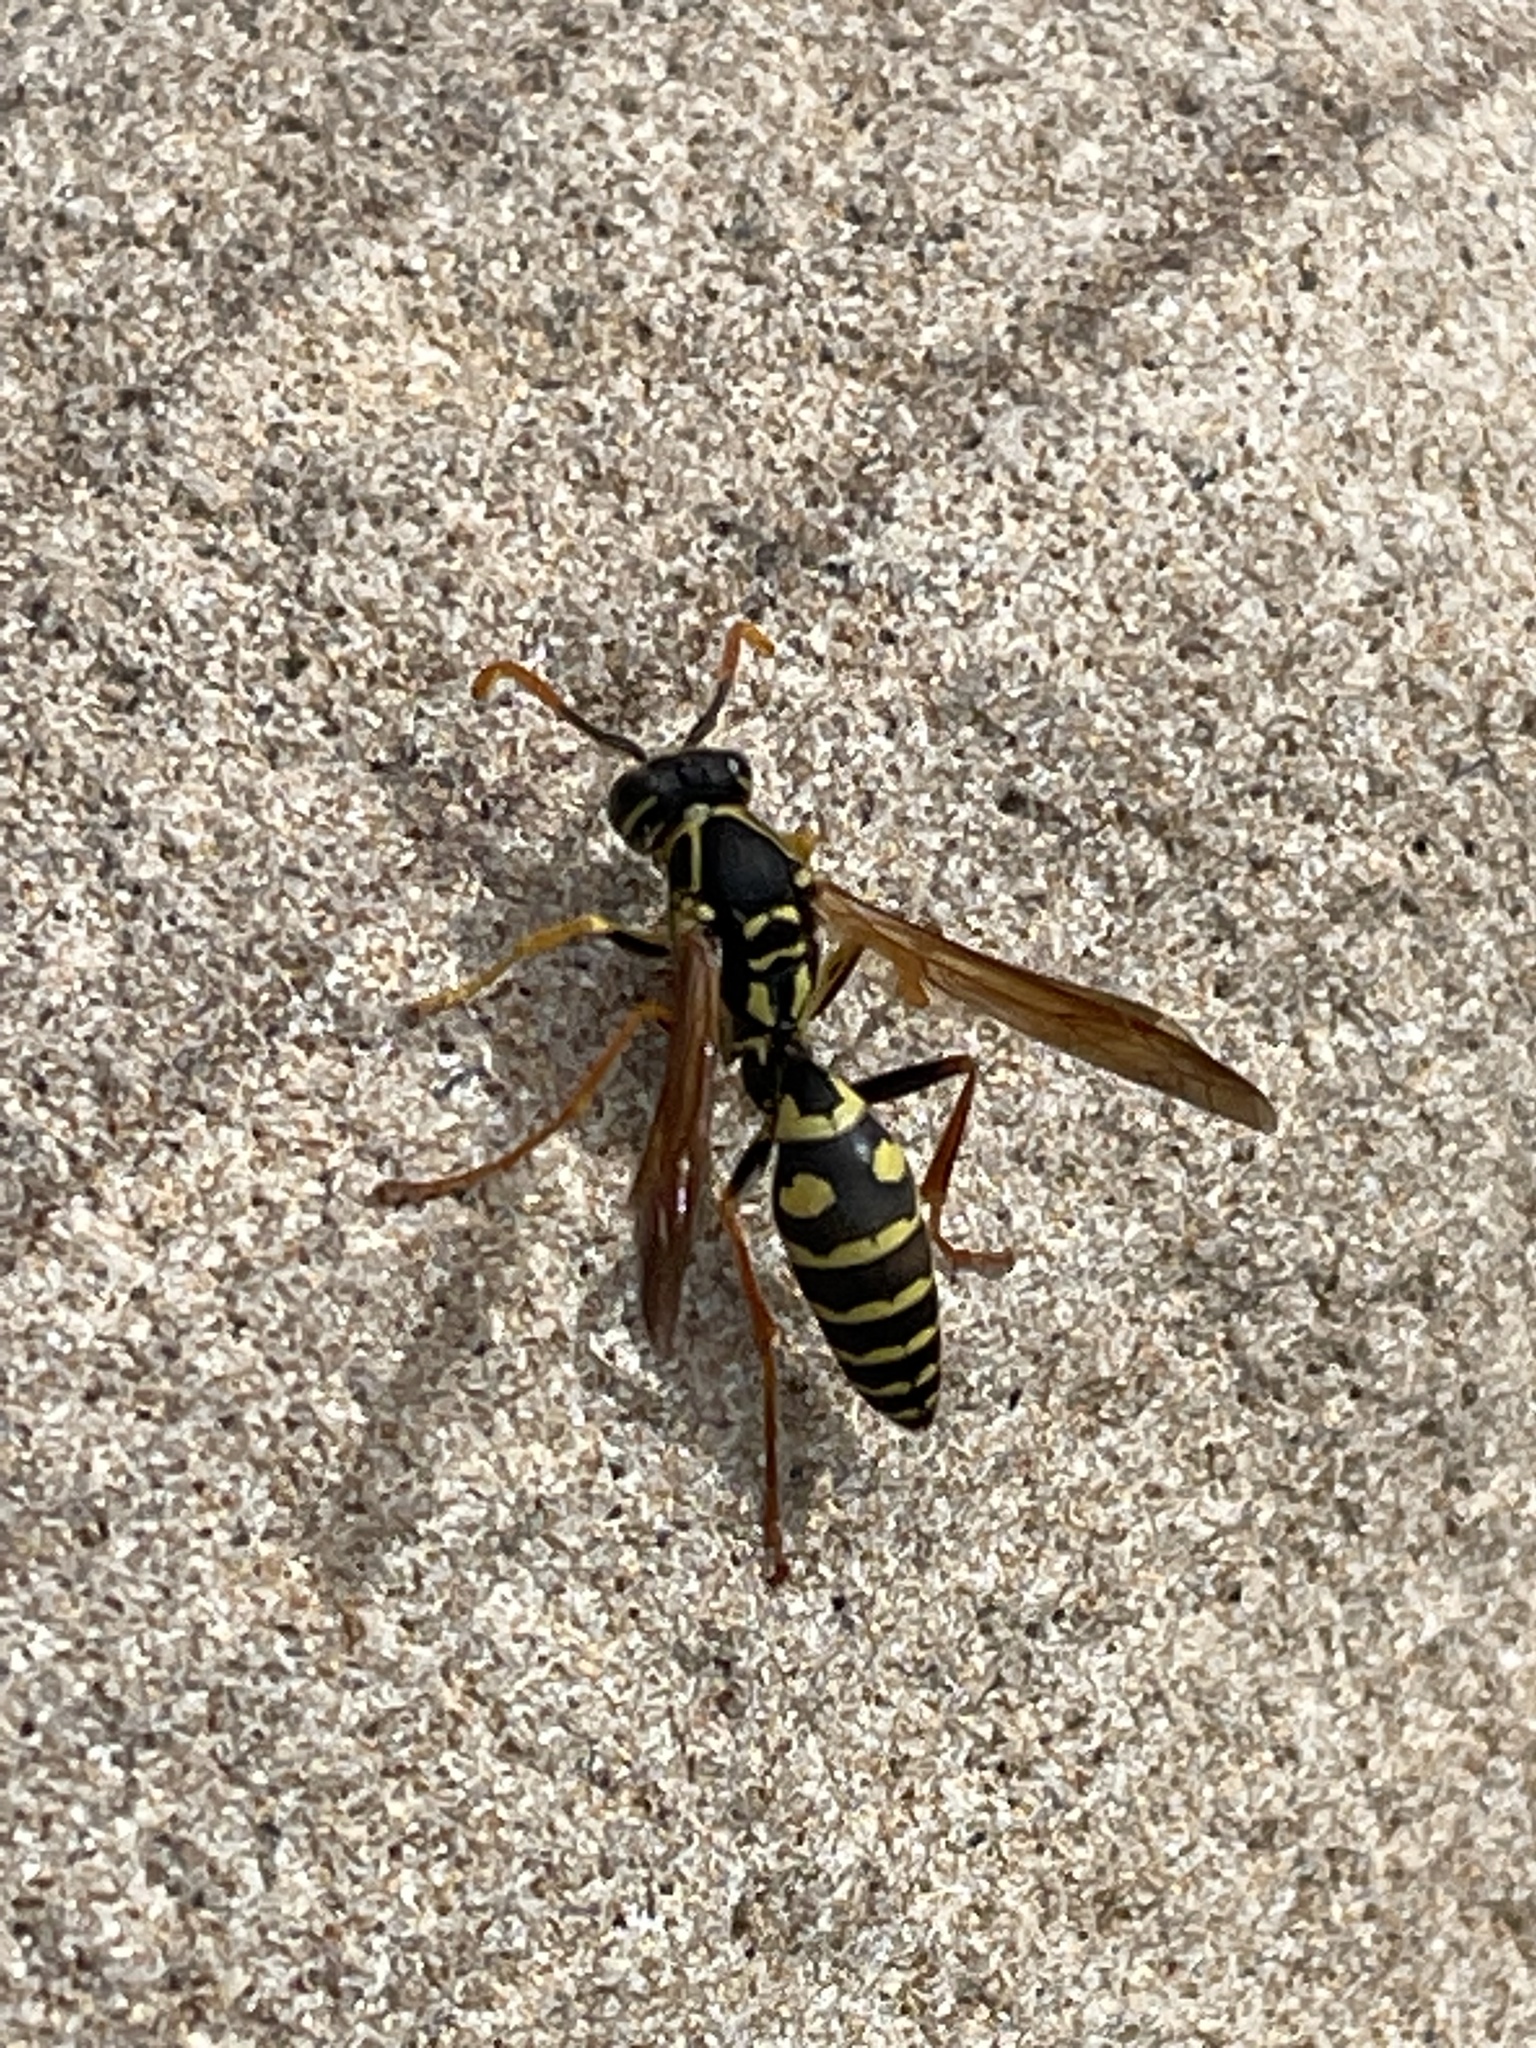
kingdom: Animalia
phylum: Arthropoda
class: Insecta
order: Hymenoptera
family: Eumenidae
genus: Polistes
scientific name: Polistes chinensis
